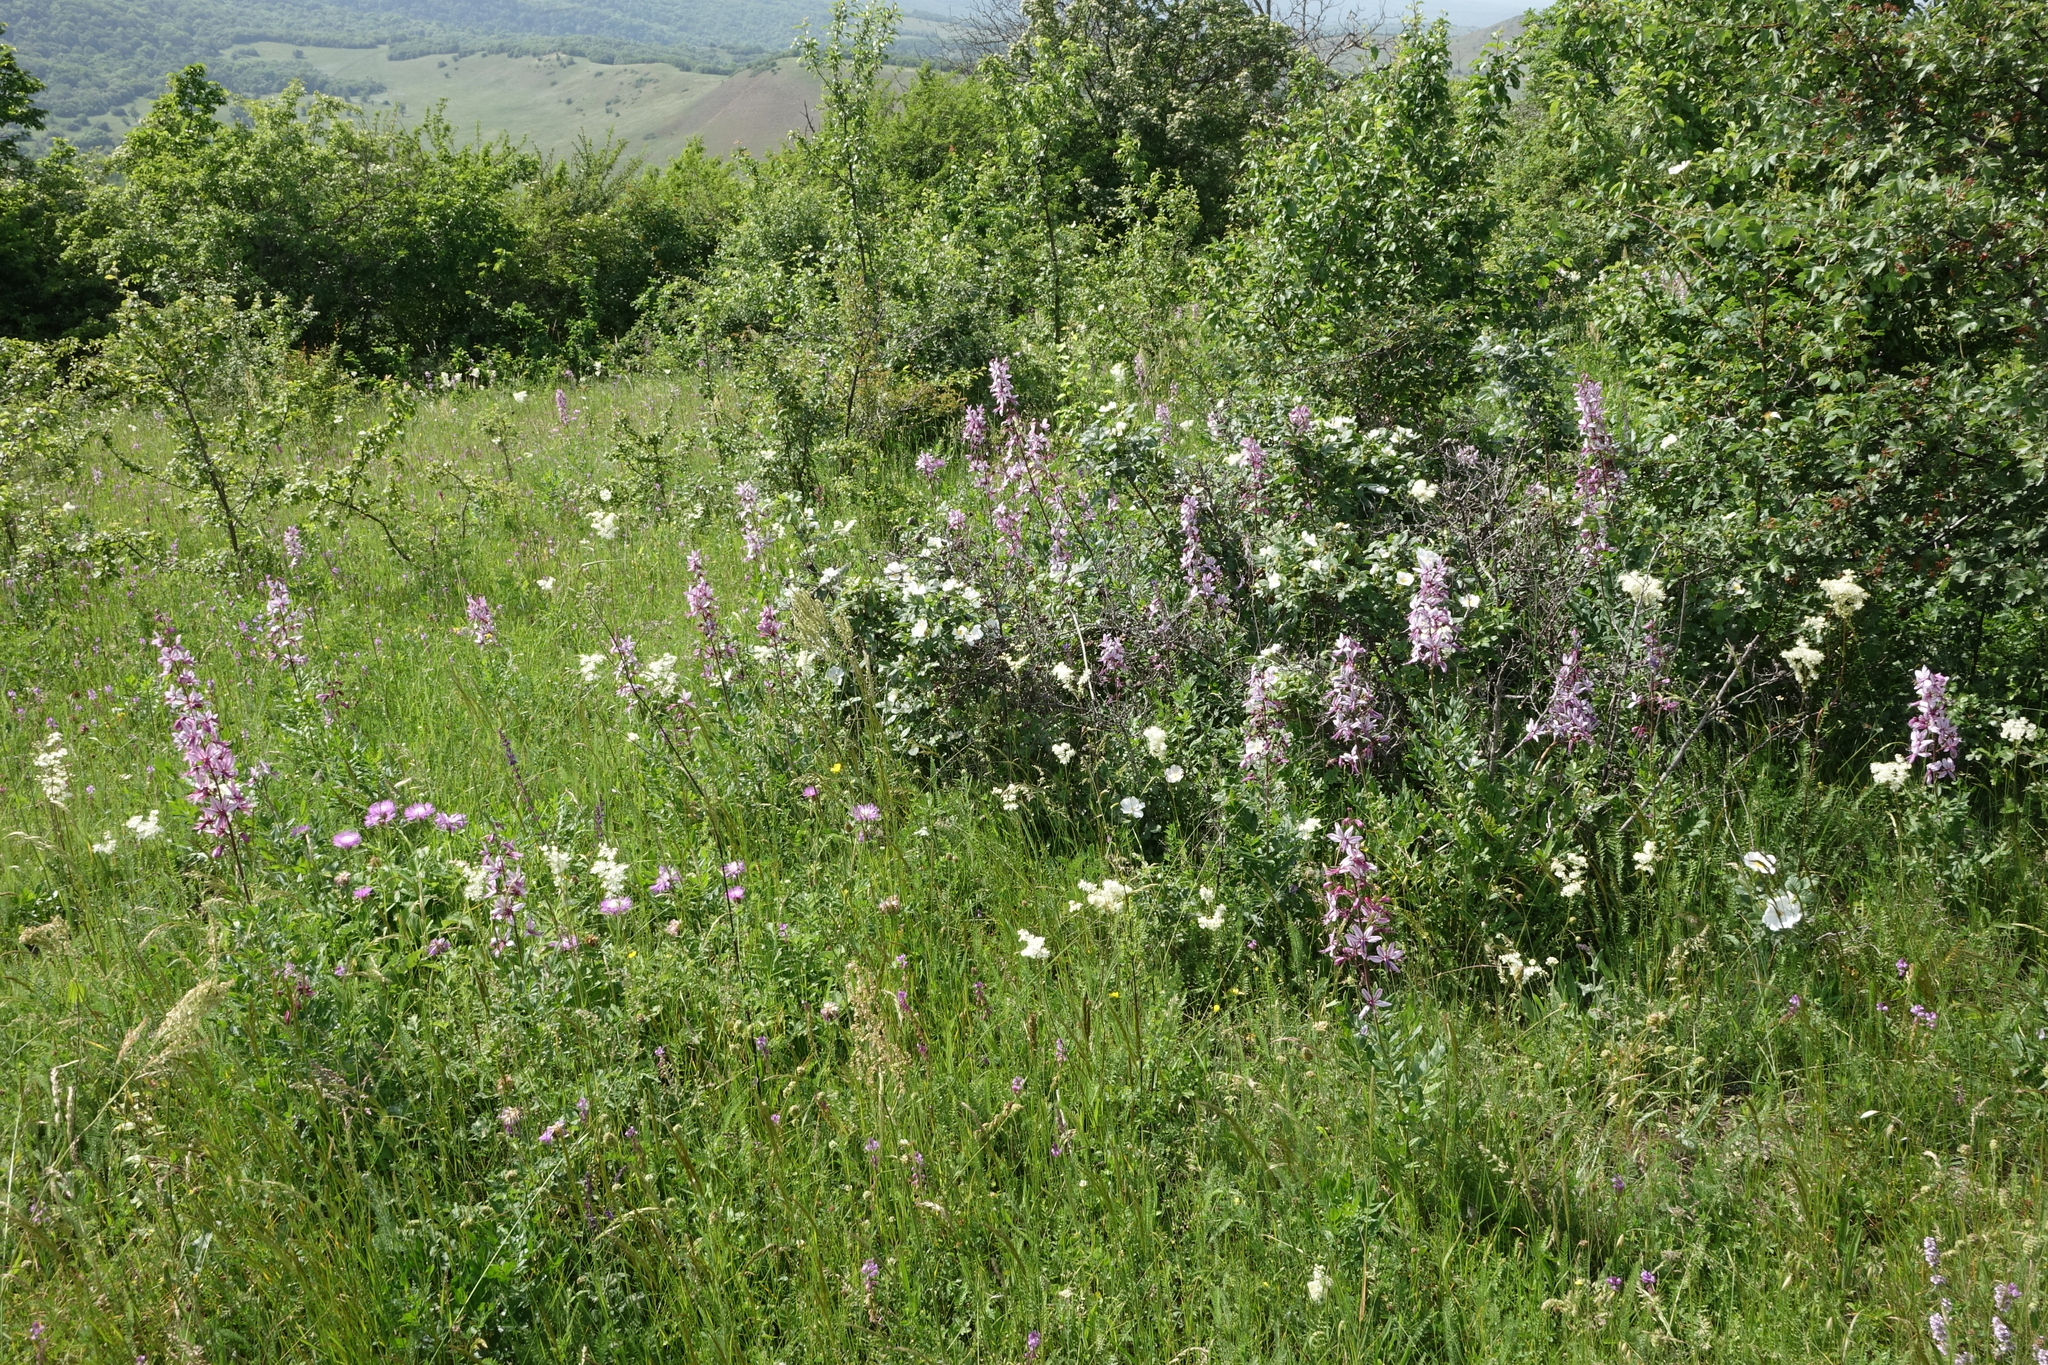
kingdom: Plantae
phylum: Tracheophyta
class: Magnoliopsida
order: Sapindales
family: Rutaceae
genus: Dictamnus
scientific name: Dictamnus albus
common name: Gasplant
